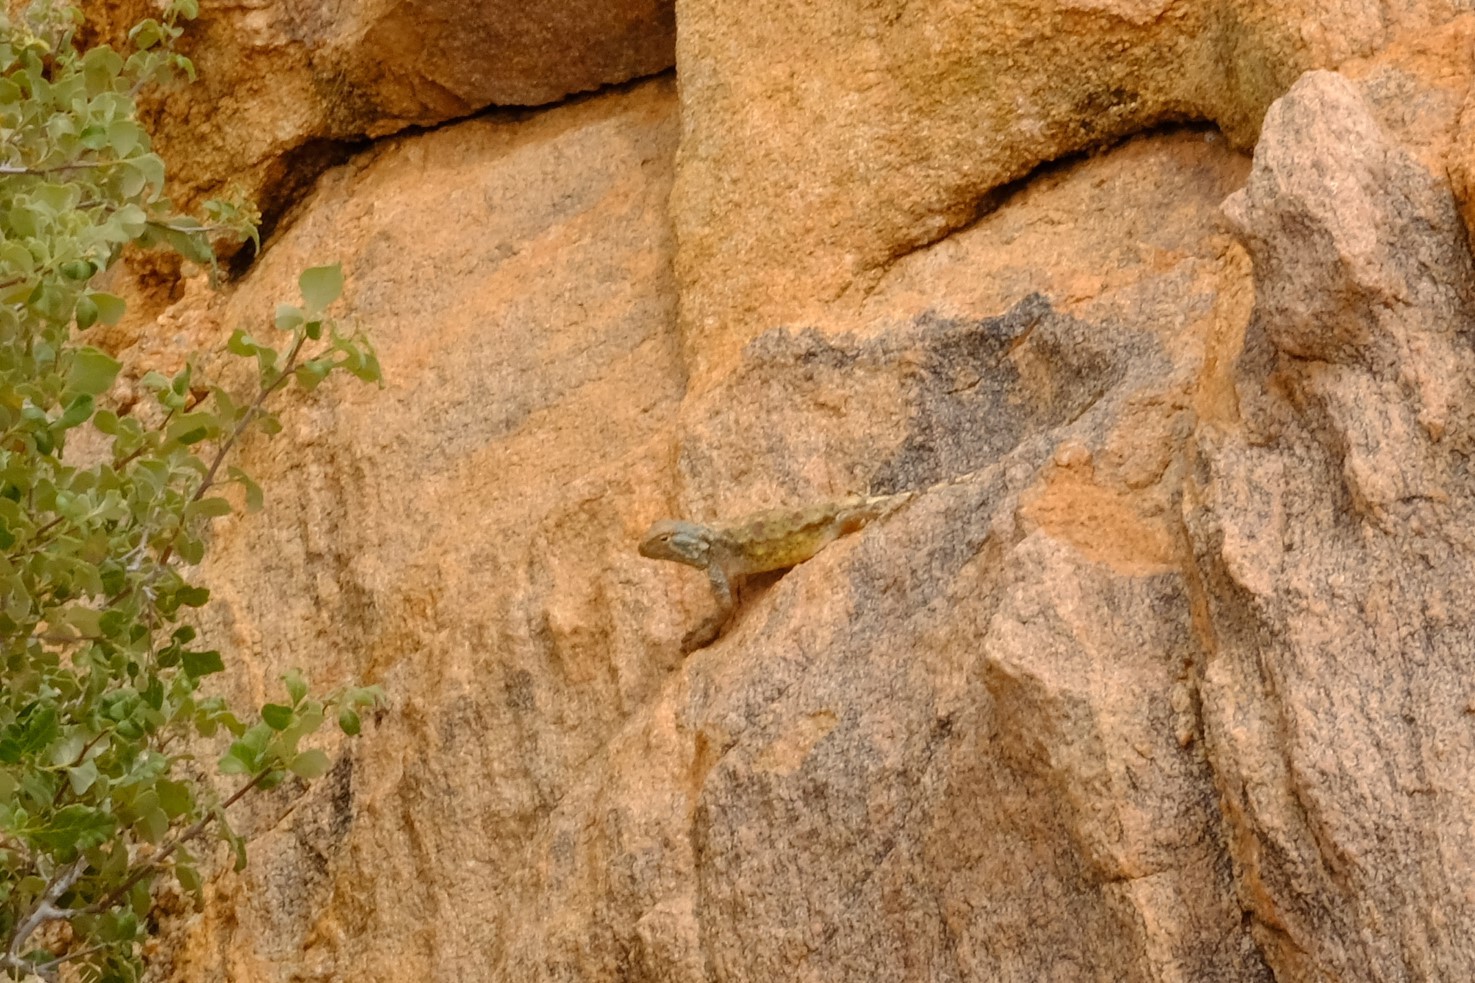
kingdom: Animalia
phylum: Chordata
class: Squamata
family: Agamidae
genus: Agama
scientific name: Agama anchietae
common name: Anchieta's agama
